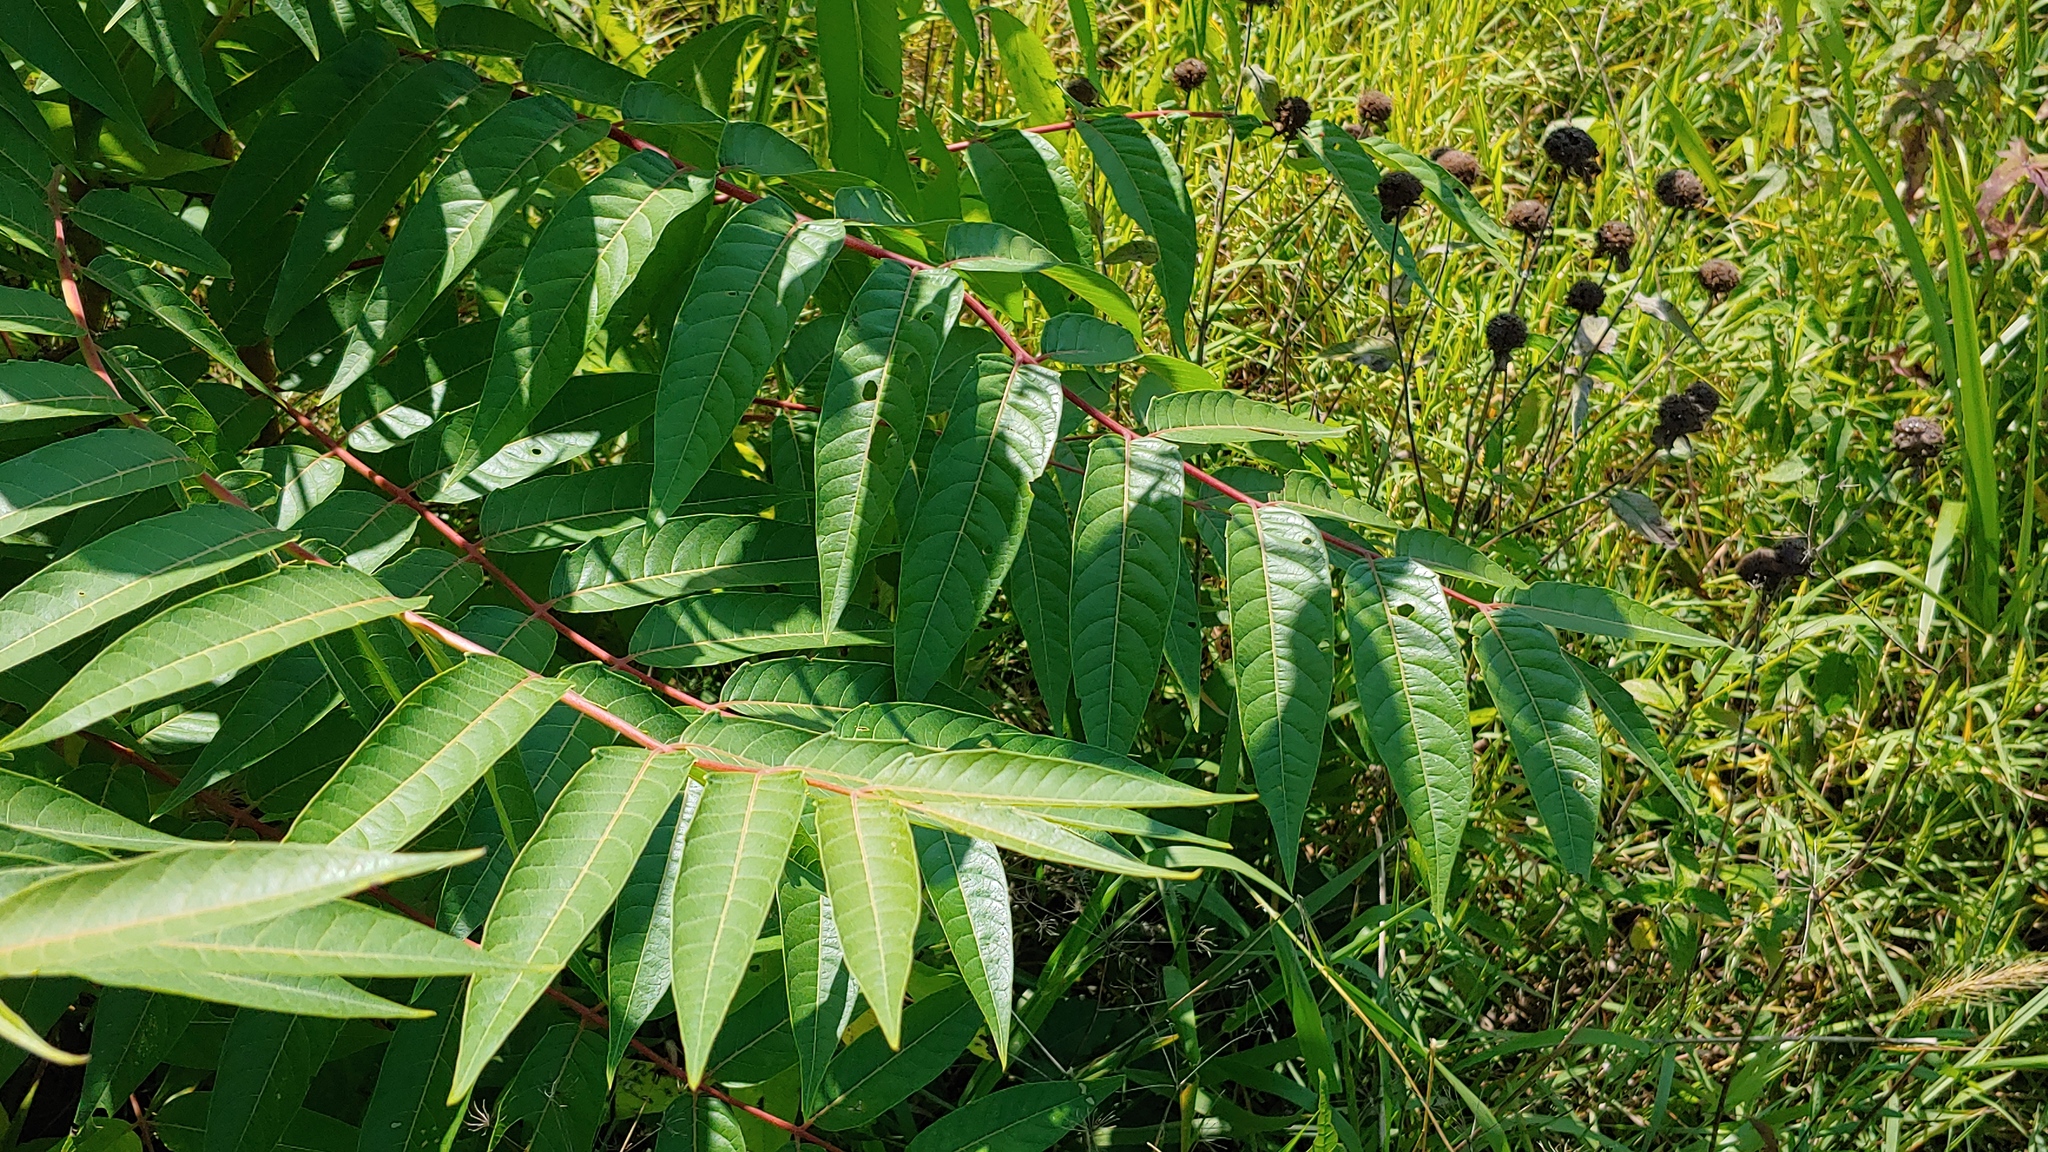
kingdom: Plantae
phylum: Tracheophyta
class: Magnoliopsida
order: Sapindales
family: Simaroubaceae
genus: Ailanthus
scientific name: Ailanthus altissima
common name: Tree-of-heaven
